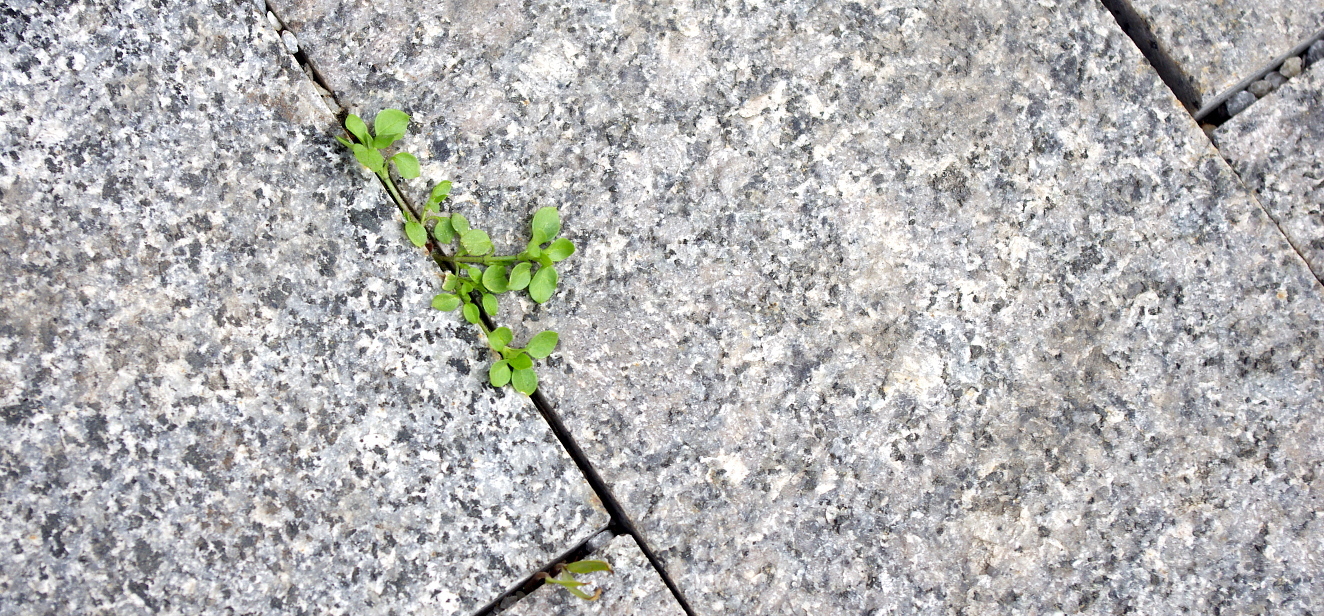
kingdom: Plantae
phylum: Tracheophyta
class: Magnoliopsida
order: Caryophyllales
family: Caryophyllaceae
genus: Stellaria
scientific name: Stellaria media
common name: Common chickweed
